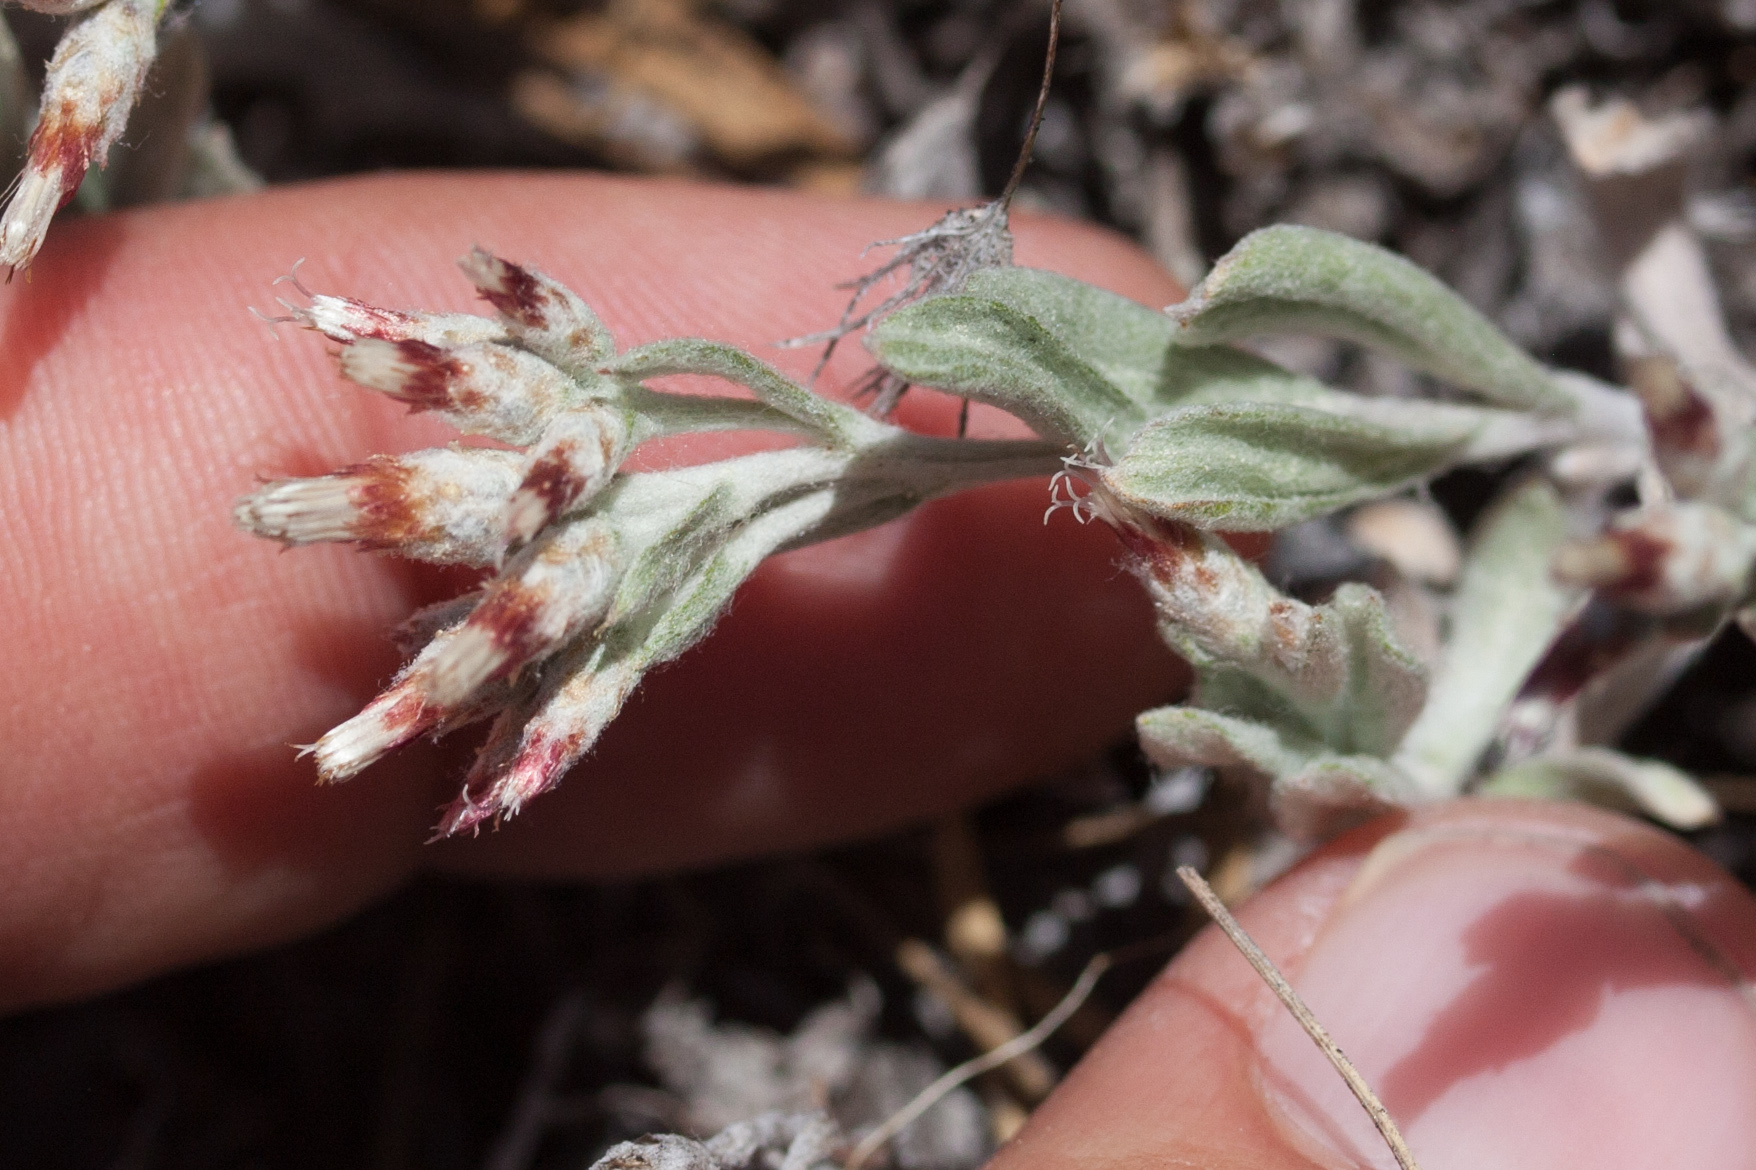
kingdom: Plantae
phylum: Tracheophyta
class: Magnoliopsida
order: Asterales
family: Asteraceae
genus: Antennaria
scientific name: Antennaria geyeri
